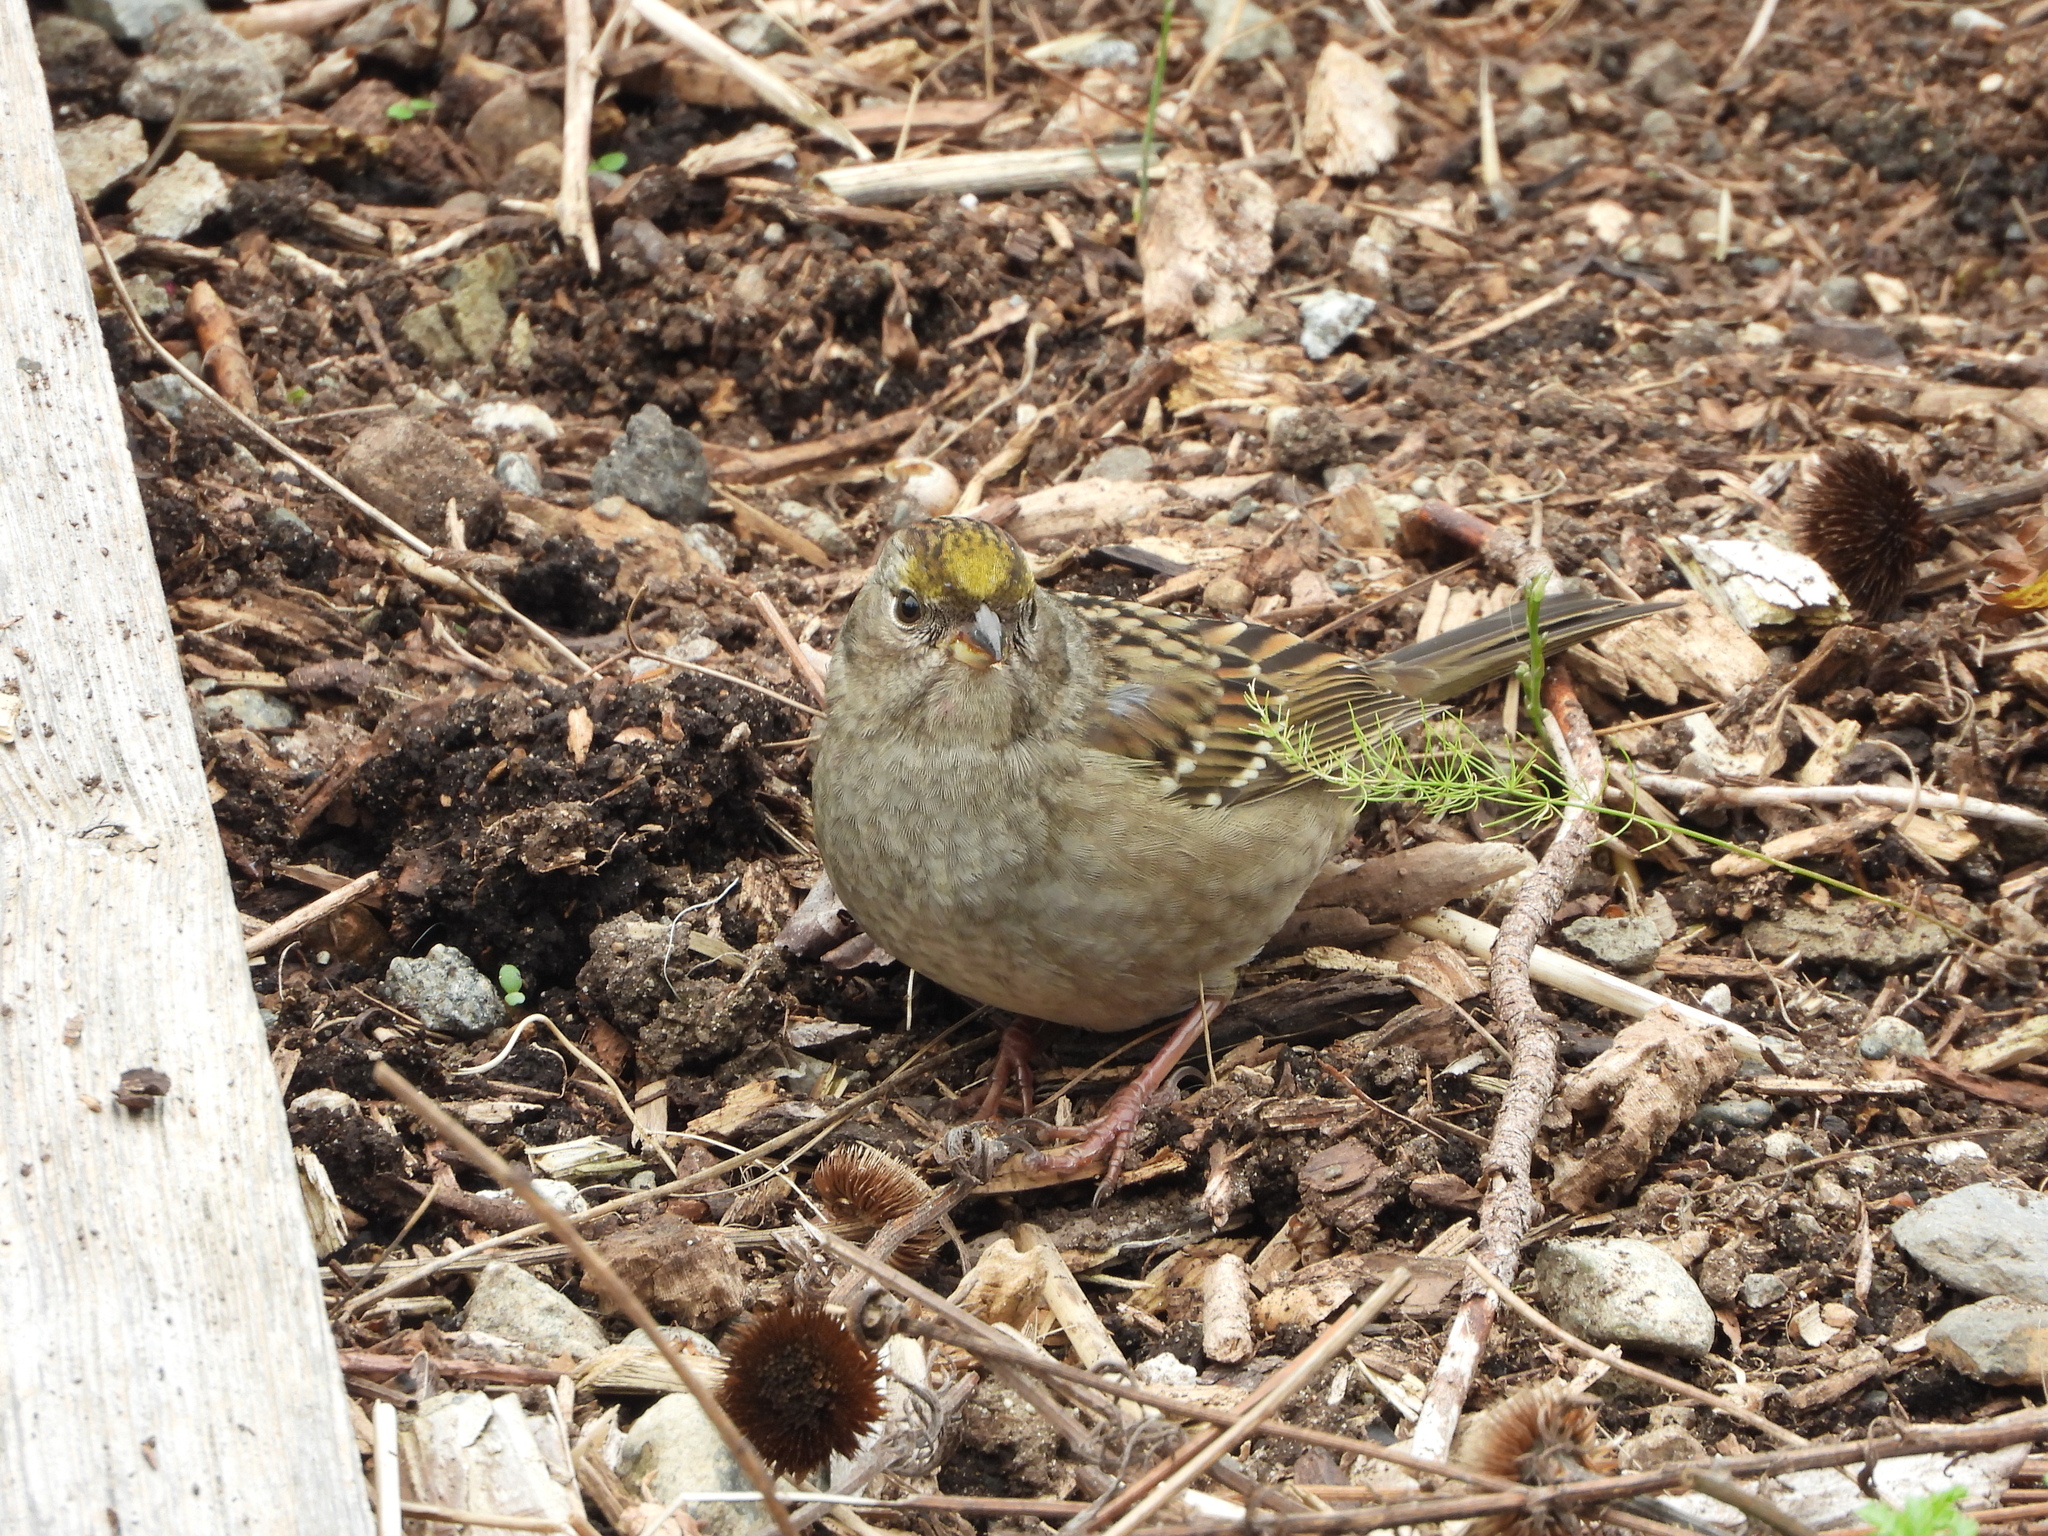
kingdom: Animalia
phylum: Chordata
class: Aves
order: Passeriformes
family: Passerellidae
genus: Zonotrichia
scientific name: Zonotrichia atricapilla
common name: Golden-crowned sparrow
